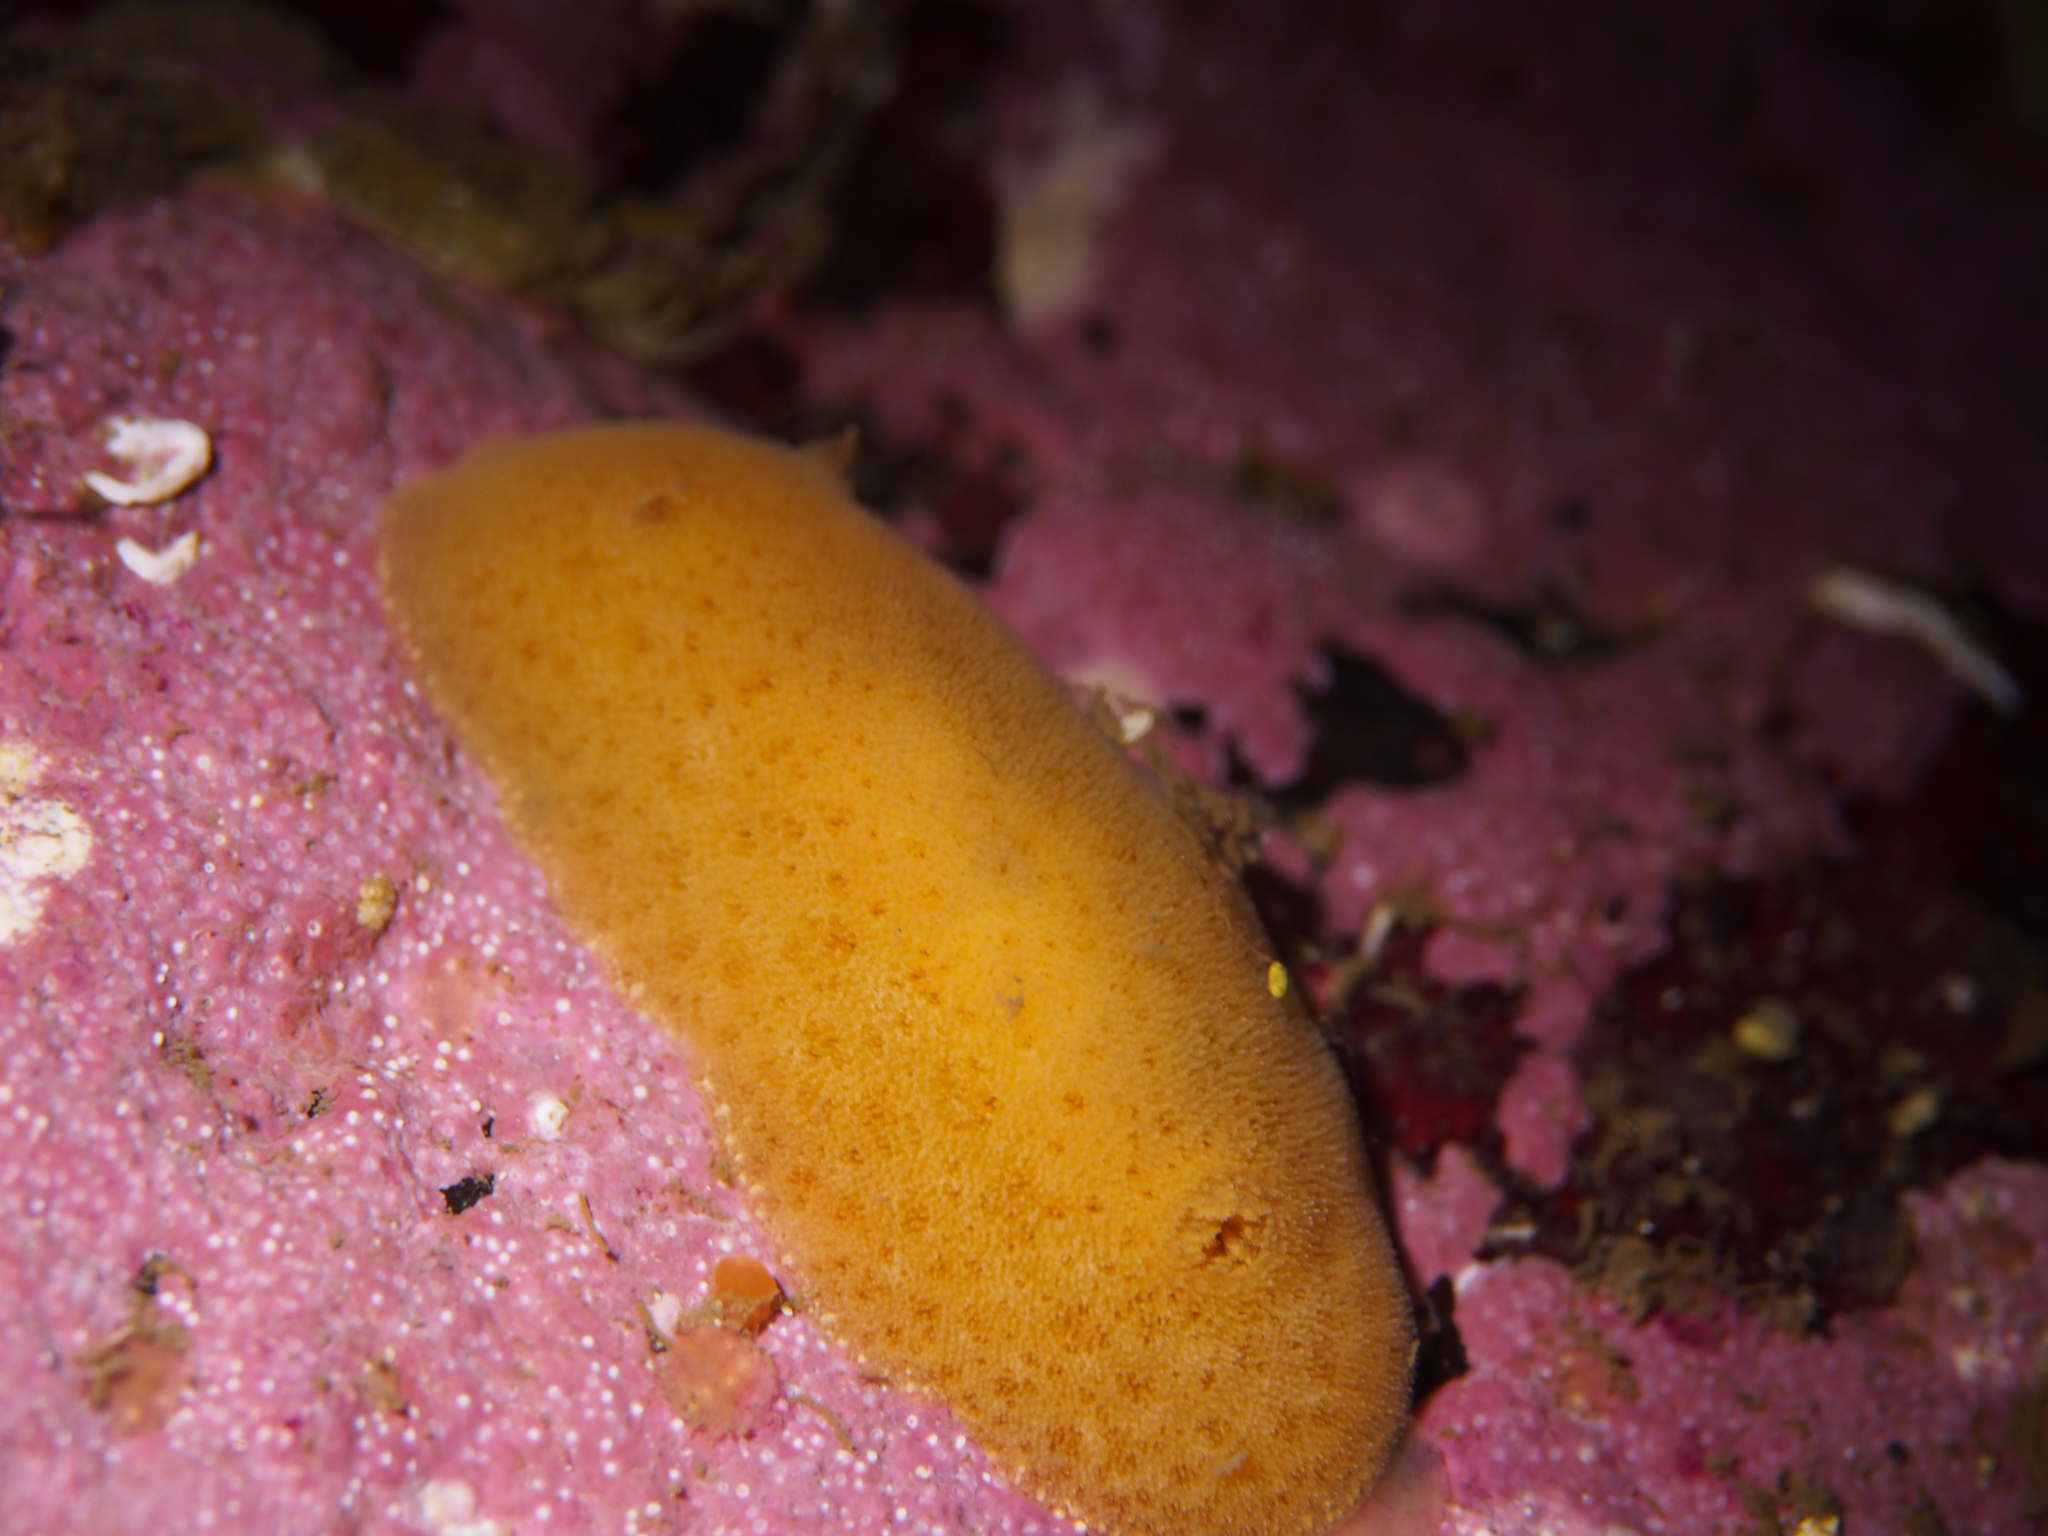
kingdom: Animalia
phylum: Mollusca
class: Gastropoda
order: Nudibranchia
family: Discodorididae
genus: Jorunna
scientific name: Jorunna tomentosa
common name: Grey sea slug
